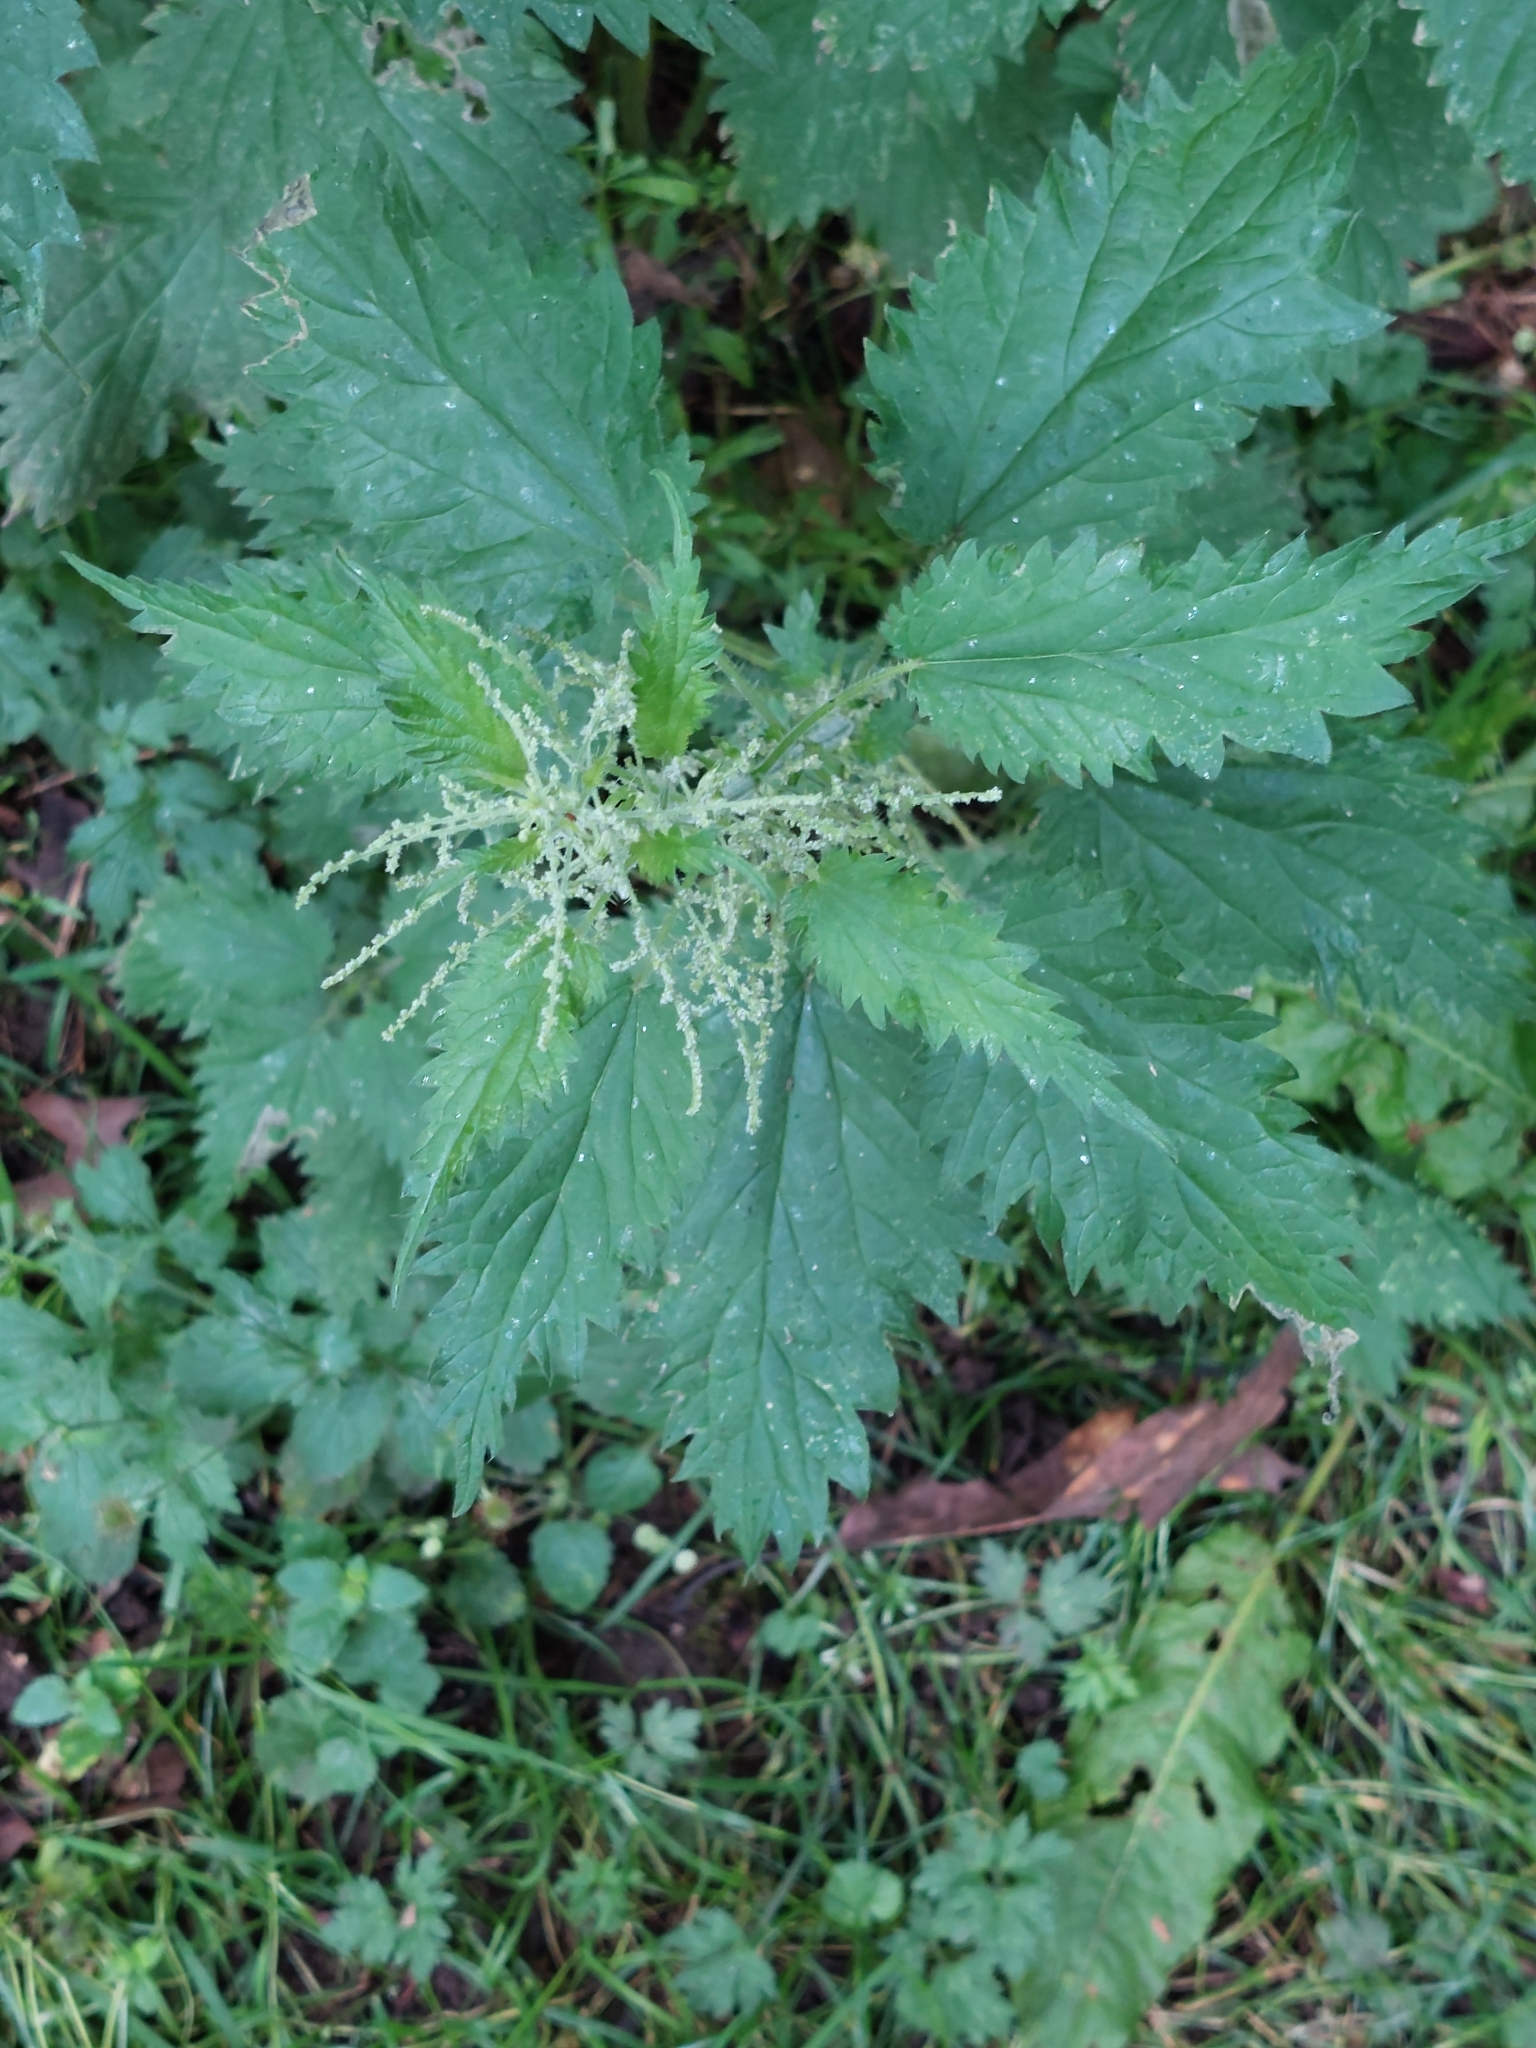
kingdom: Plantae
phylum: Tracheophyta
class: Magnoliopsida
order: Rosales
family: Urticaceae
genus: Urtica
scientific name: Urtica dioica
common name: Common nettle
